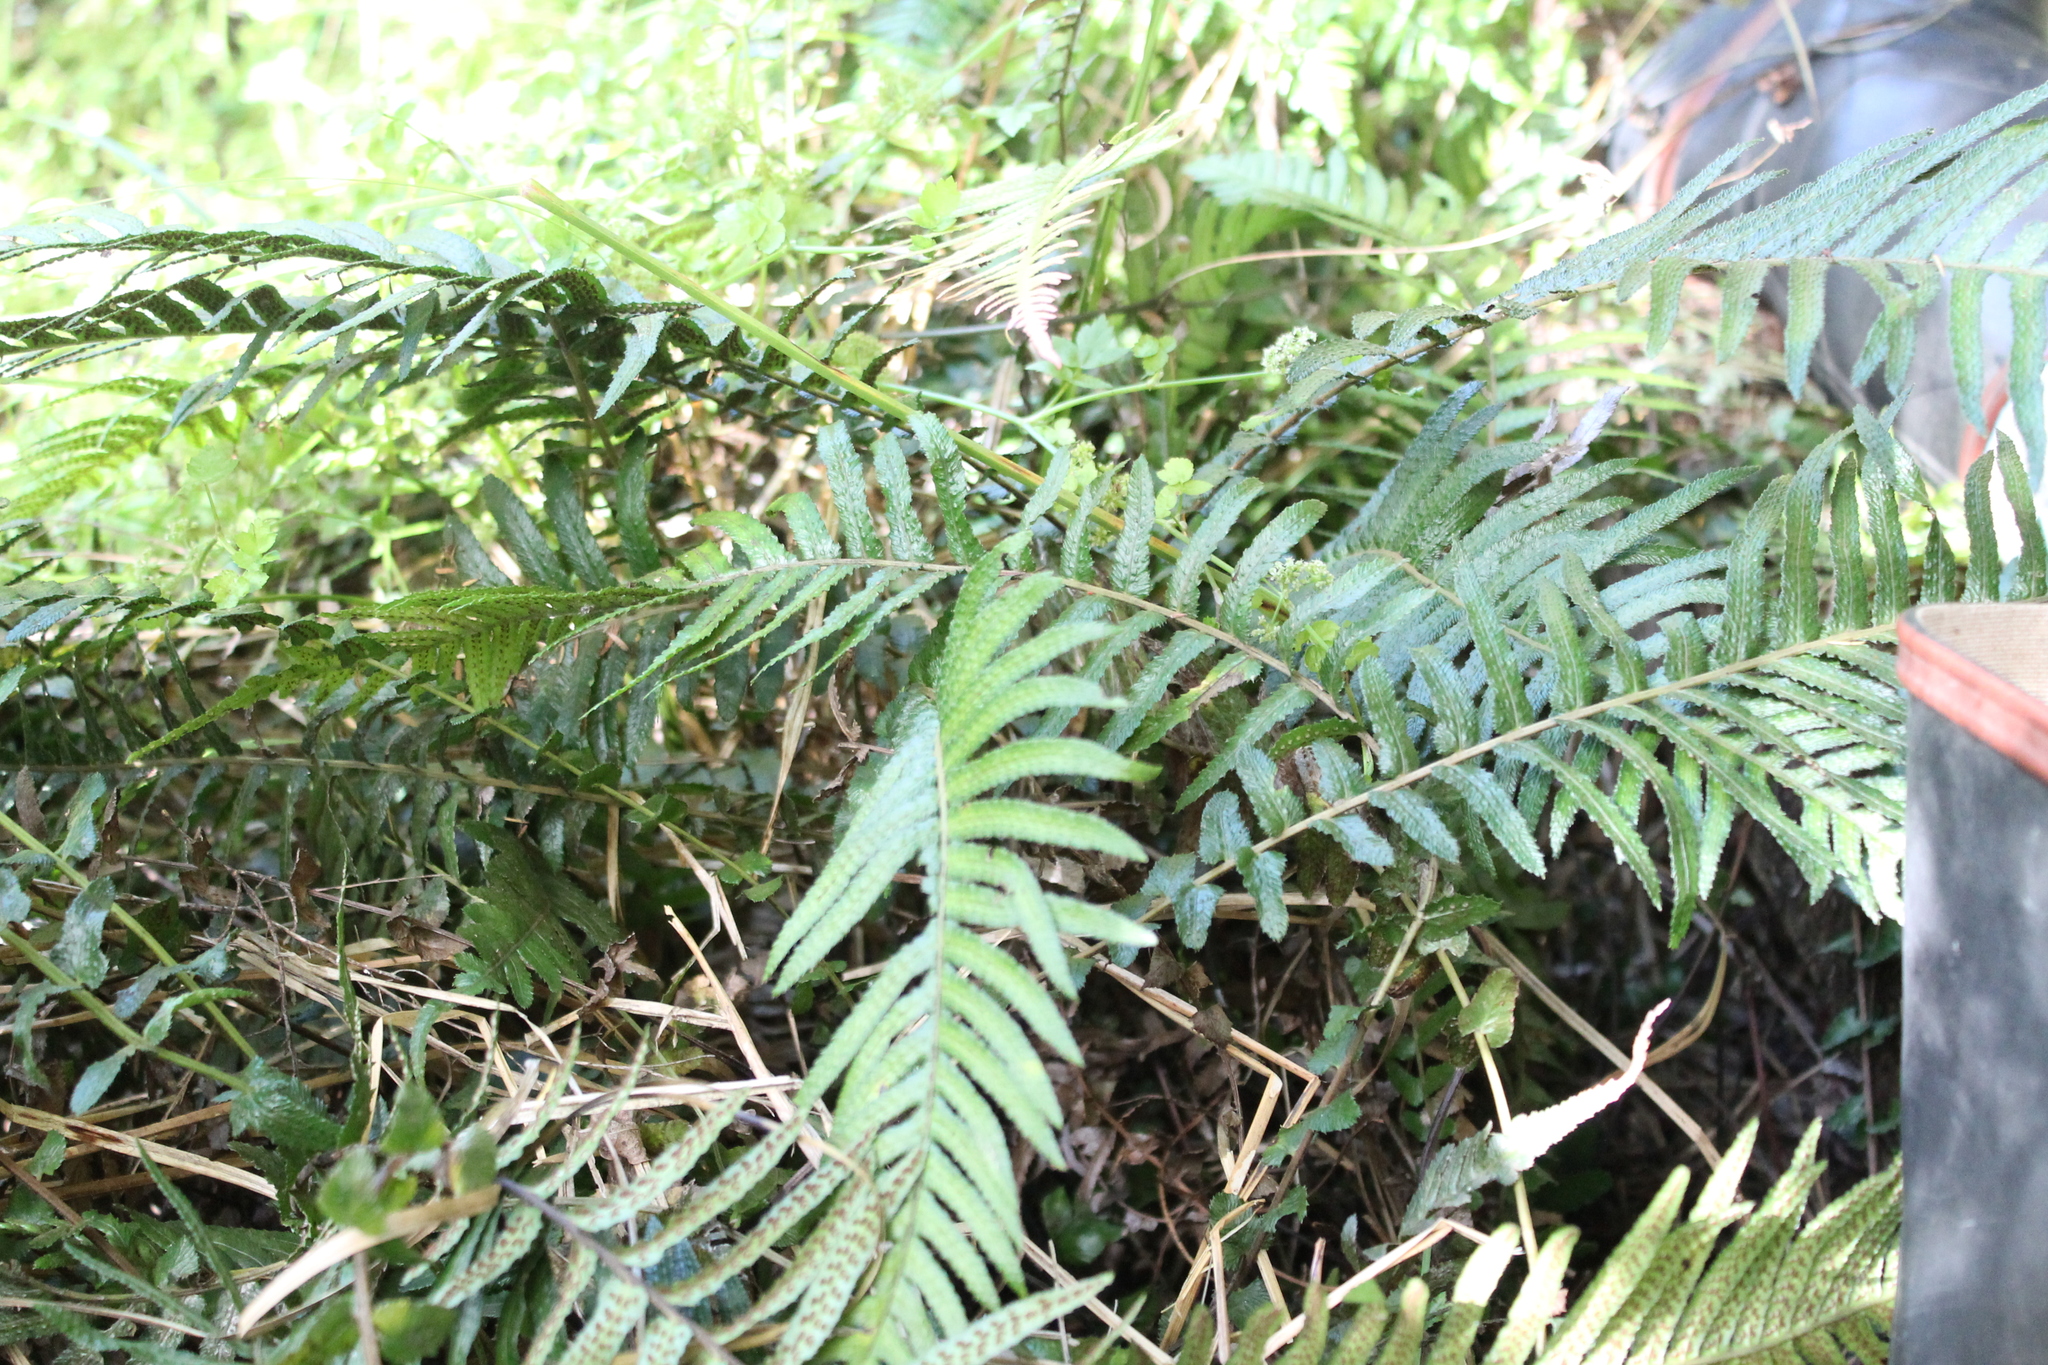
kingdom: Plantae
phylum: Tracheophyta
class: Polypodiopsida
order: Polypodiales
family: Blechnaceae
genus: Doodia
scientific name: Doodia australis
